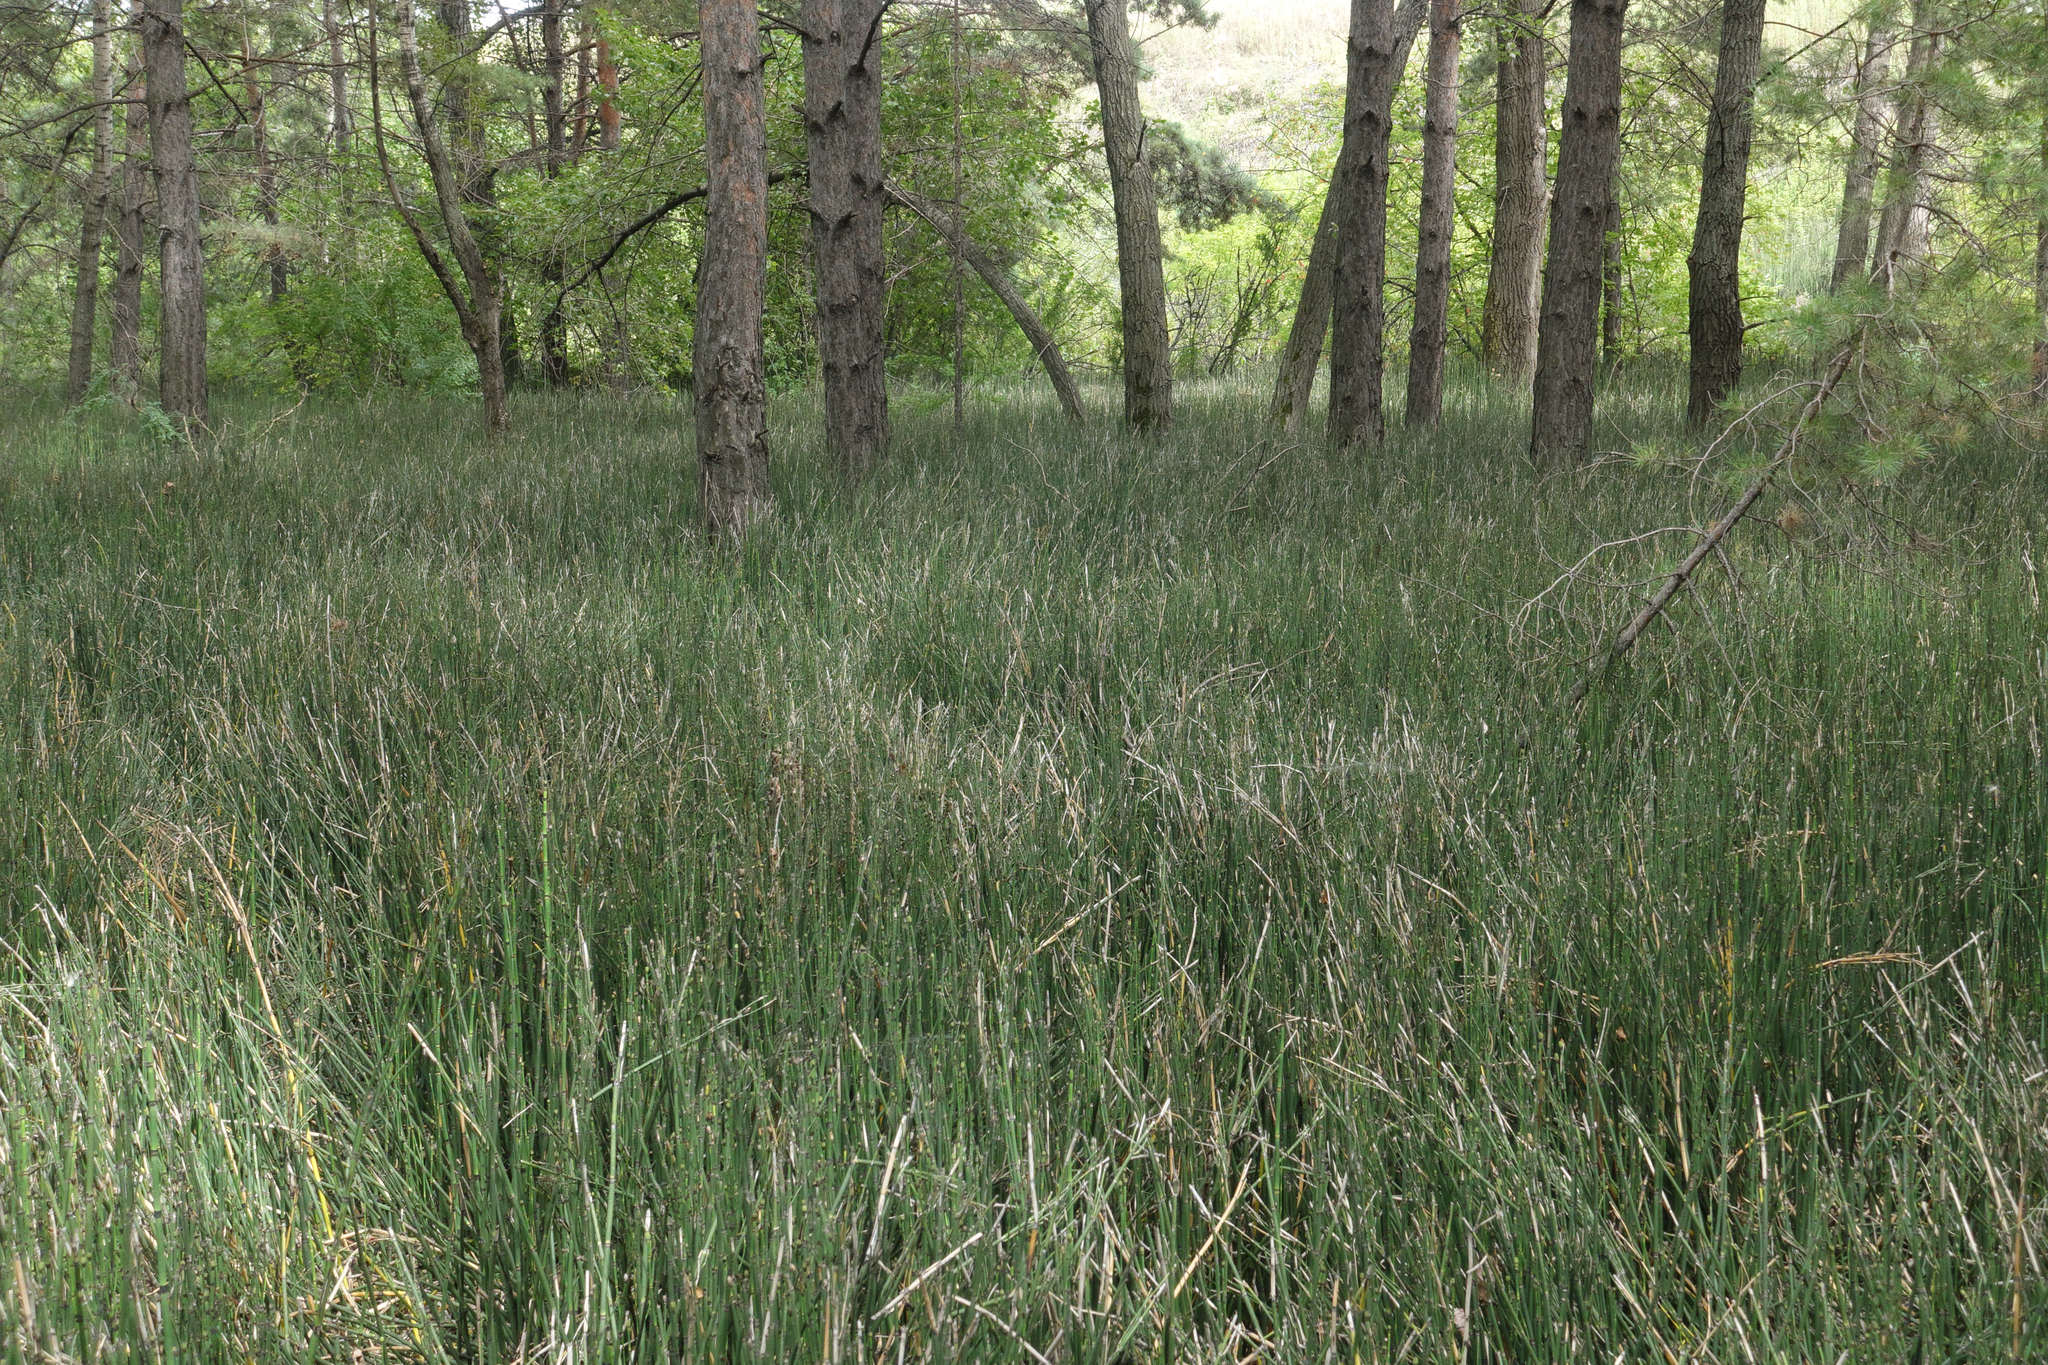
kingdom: Plantae
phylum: Tracheophyta
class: Polypodiopsida
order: Equisetales
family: Equisetaceae
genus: Equisetum
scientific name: Equisetum hyemale
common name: Rough horsetail
